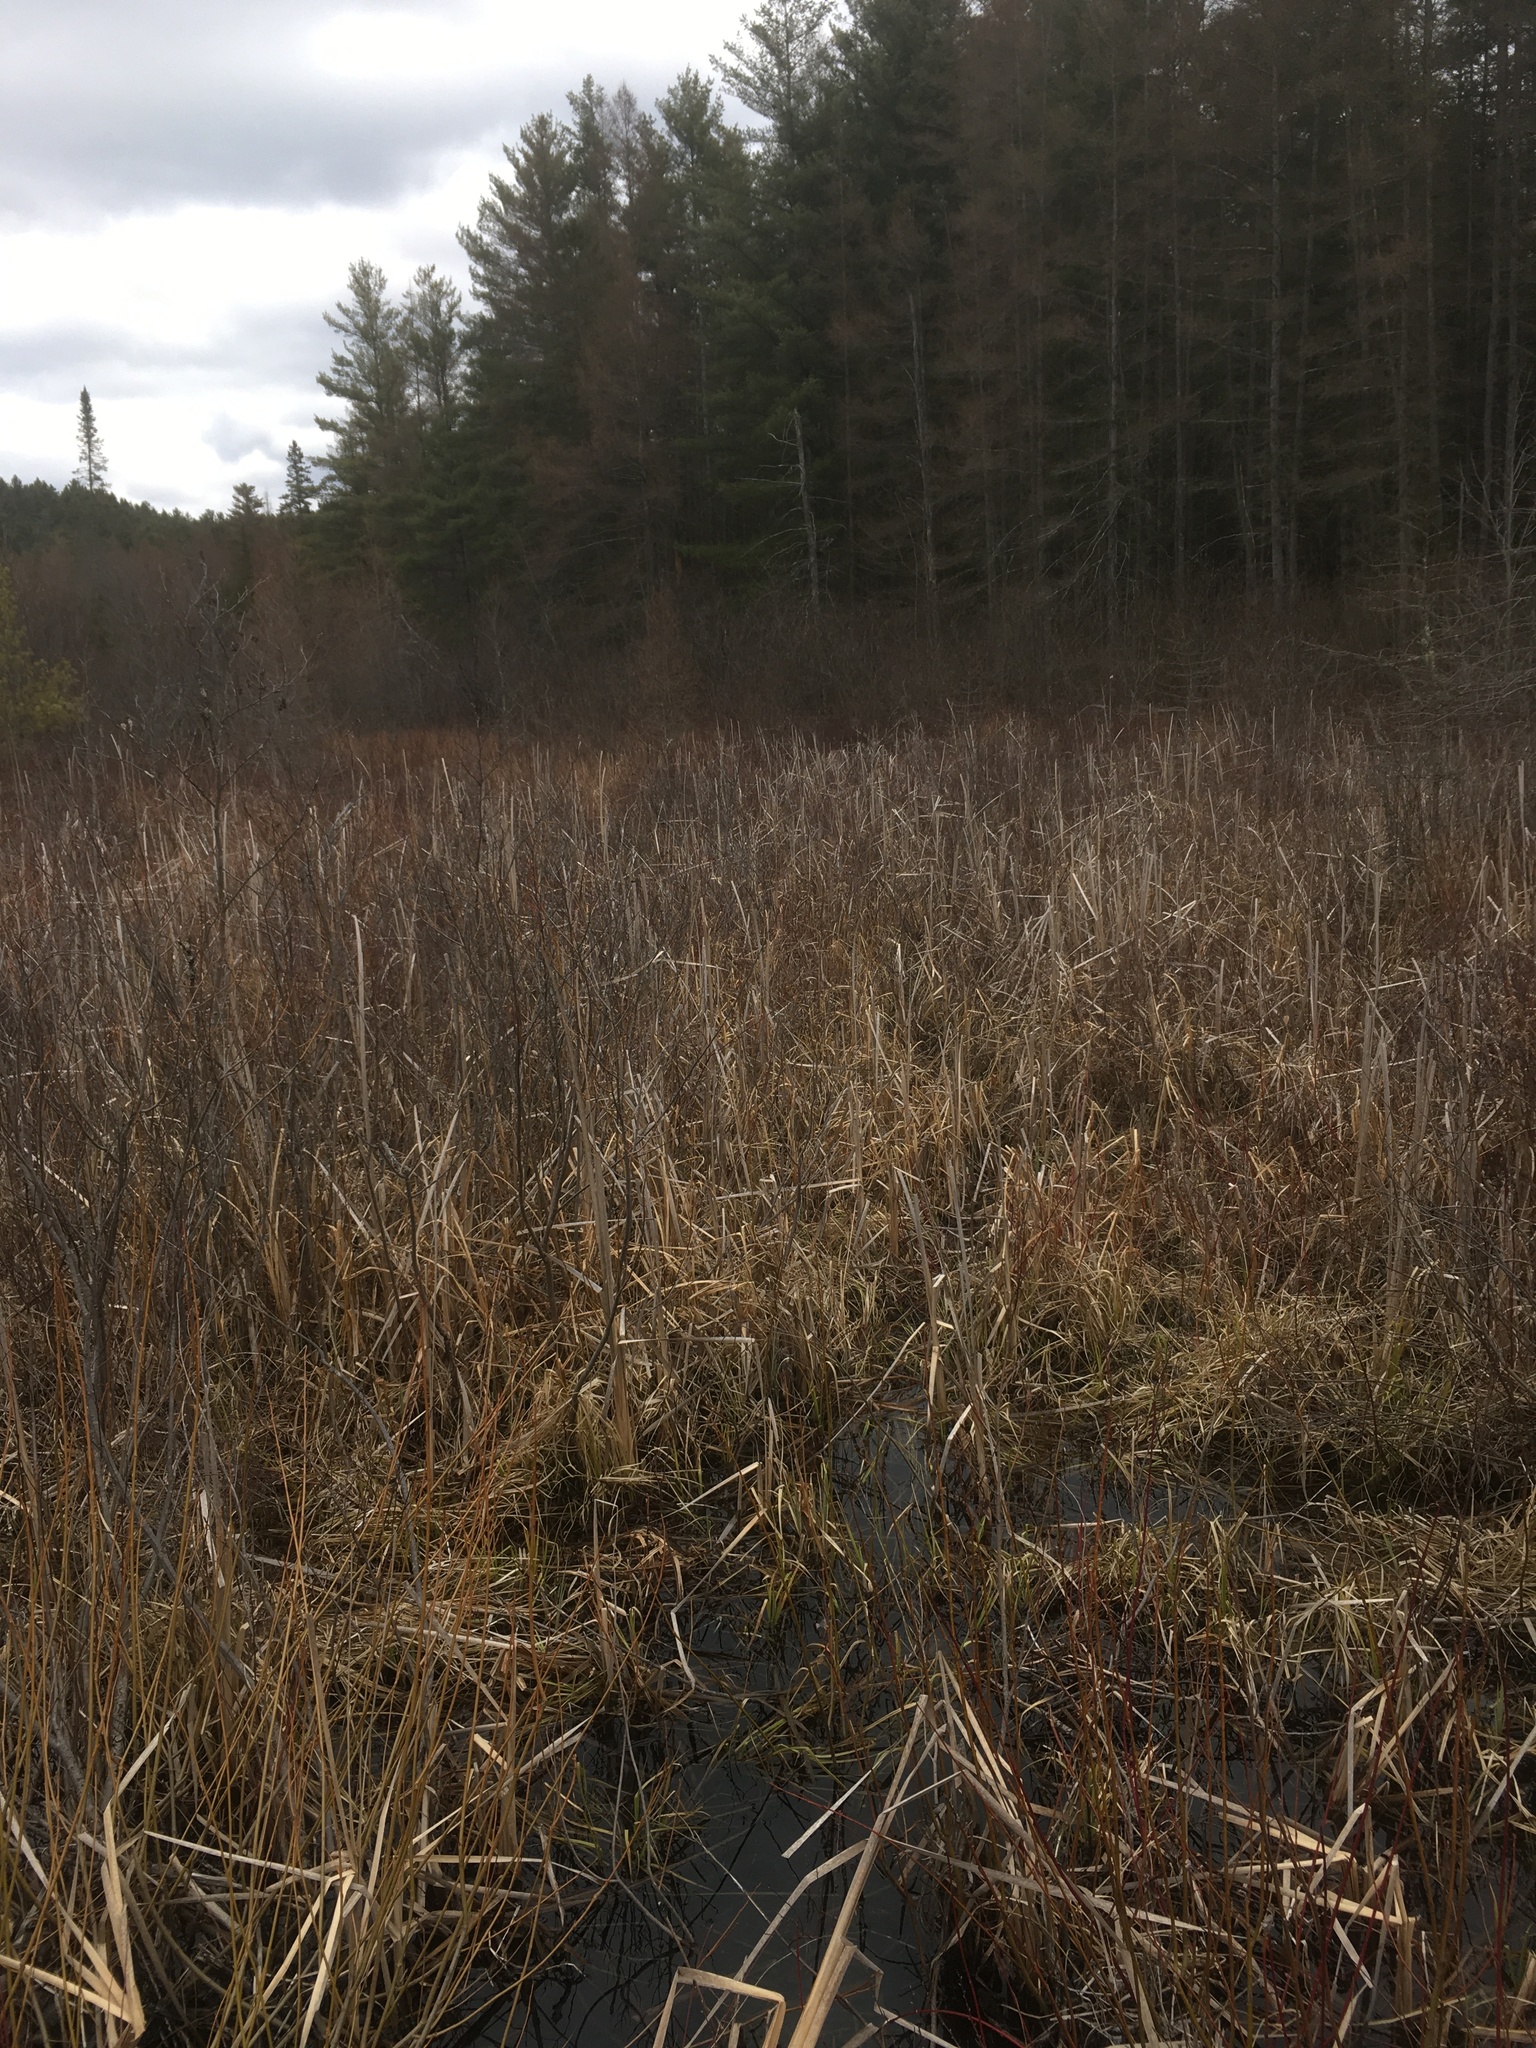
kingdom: Plantae
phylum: Tracheophyta
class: Liliopsida
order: Poales
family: Typhaceae
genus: Typha
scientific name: Typha latifolia
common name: Broadleaf cattail
